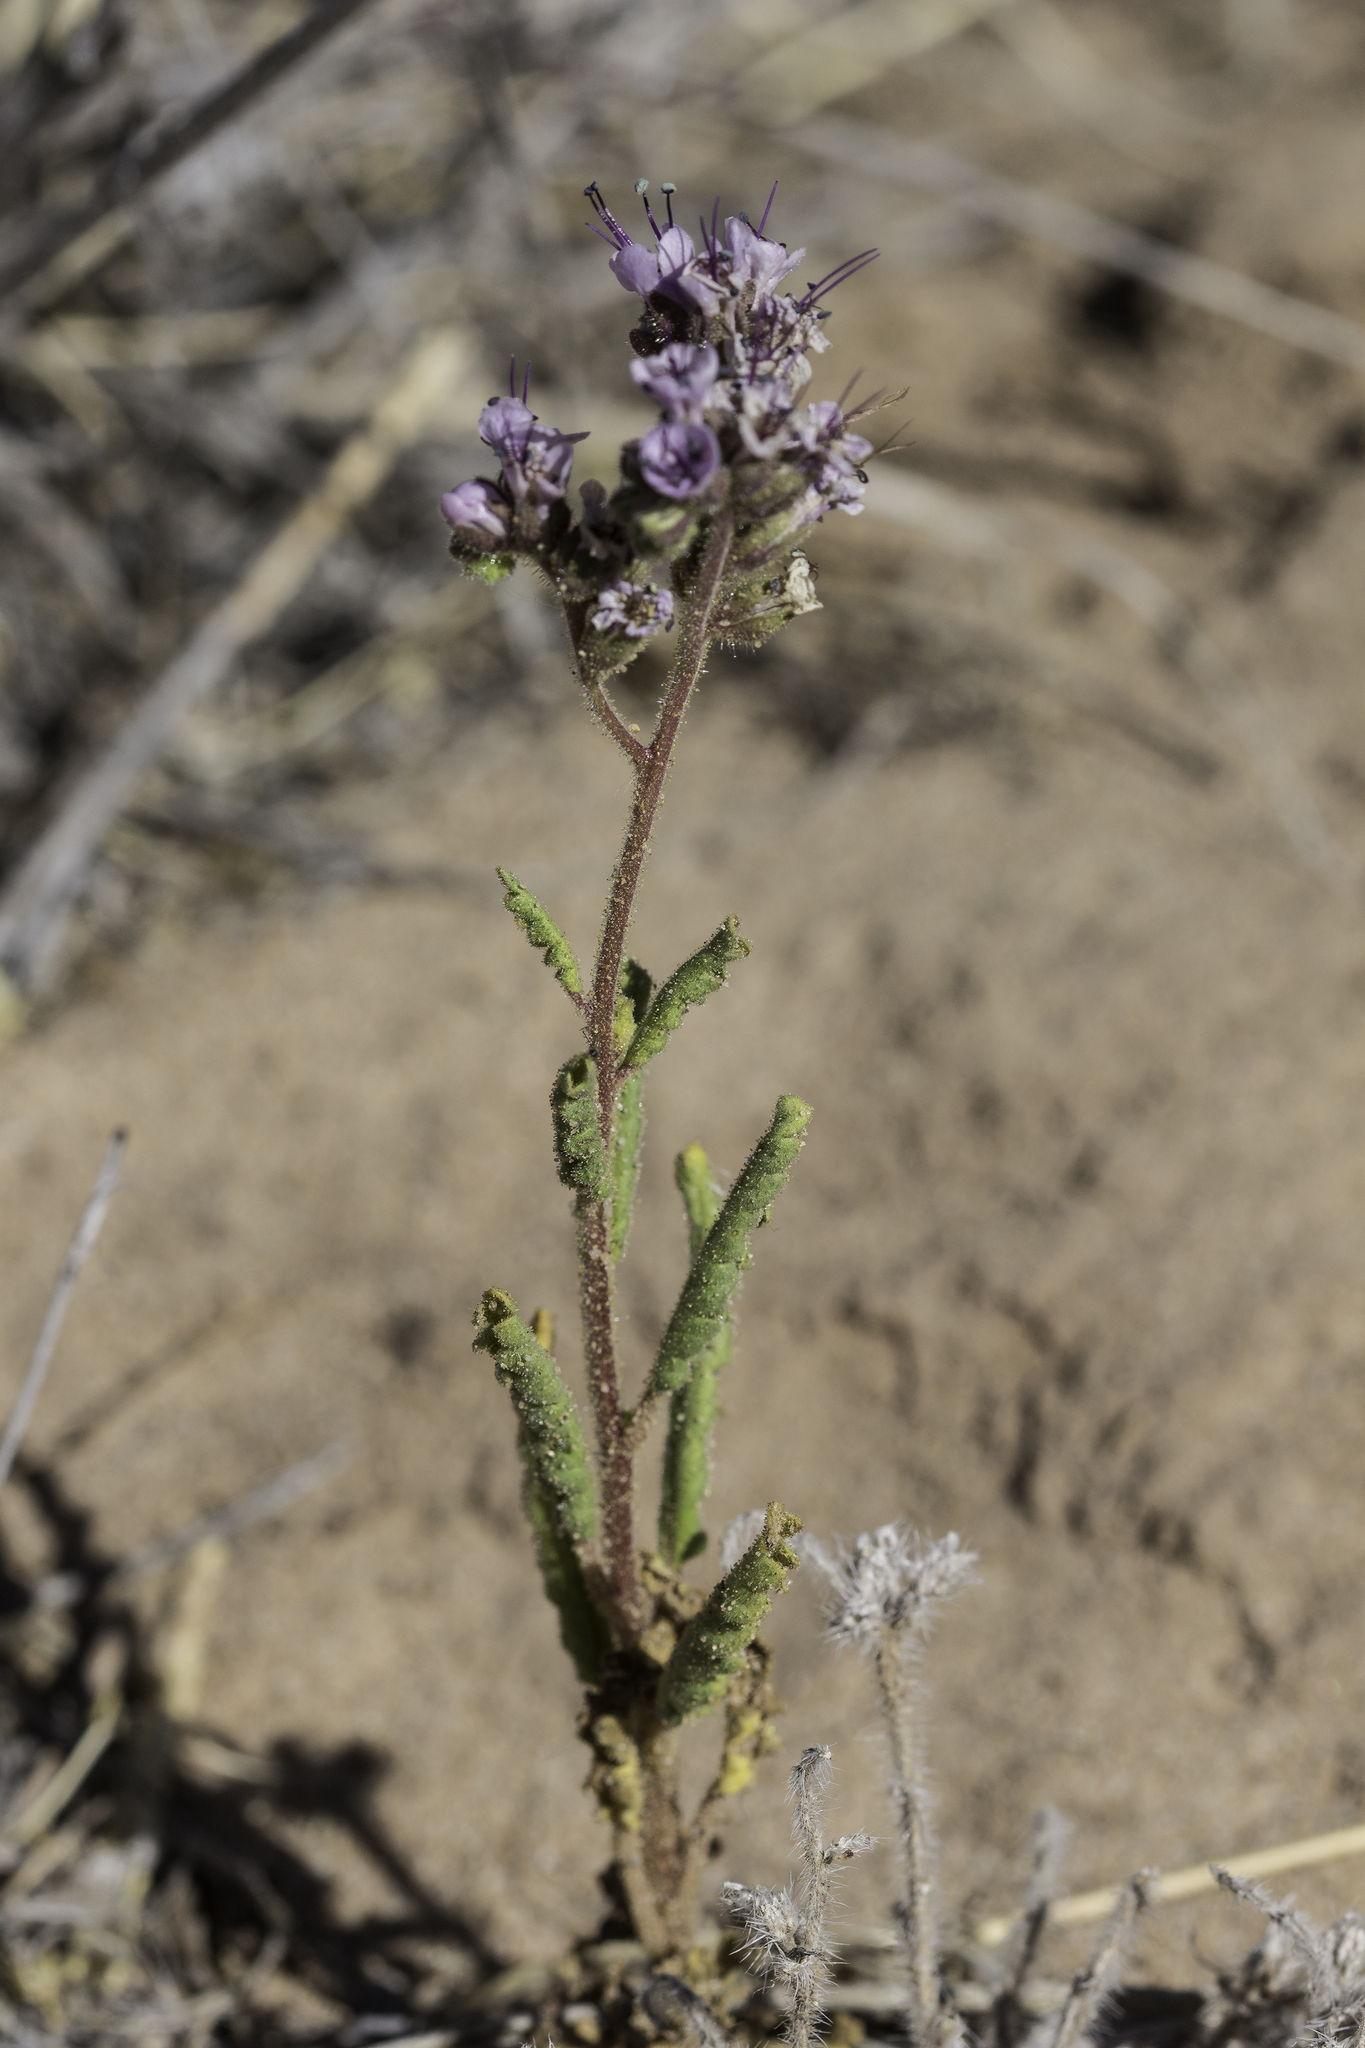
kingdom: Plantae
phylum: Tracheophyta
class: Magnoliopsida
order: Boraginales
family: Hydrophyllaceae
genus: Phacelia
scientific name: Phacelia integrifolia
